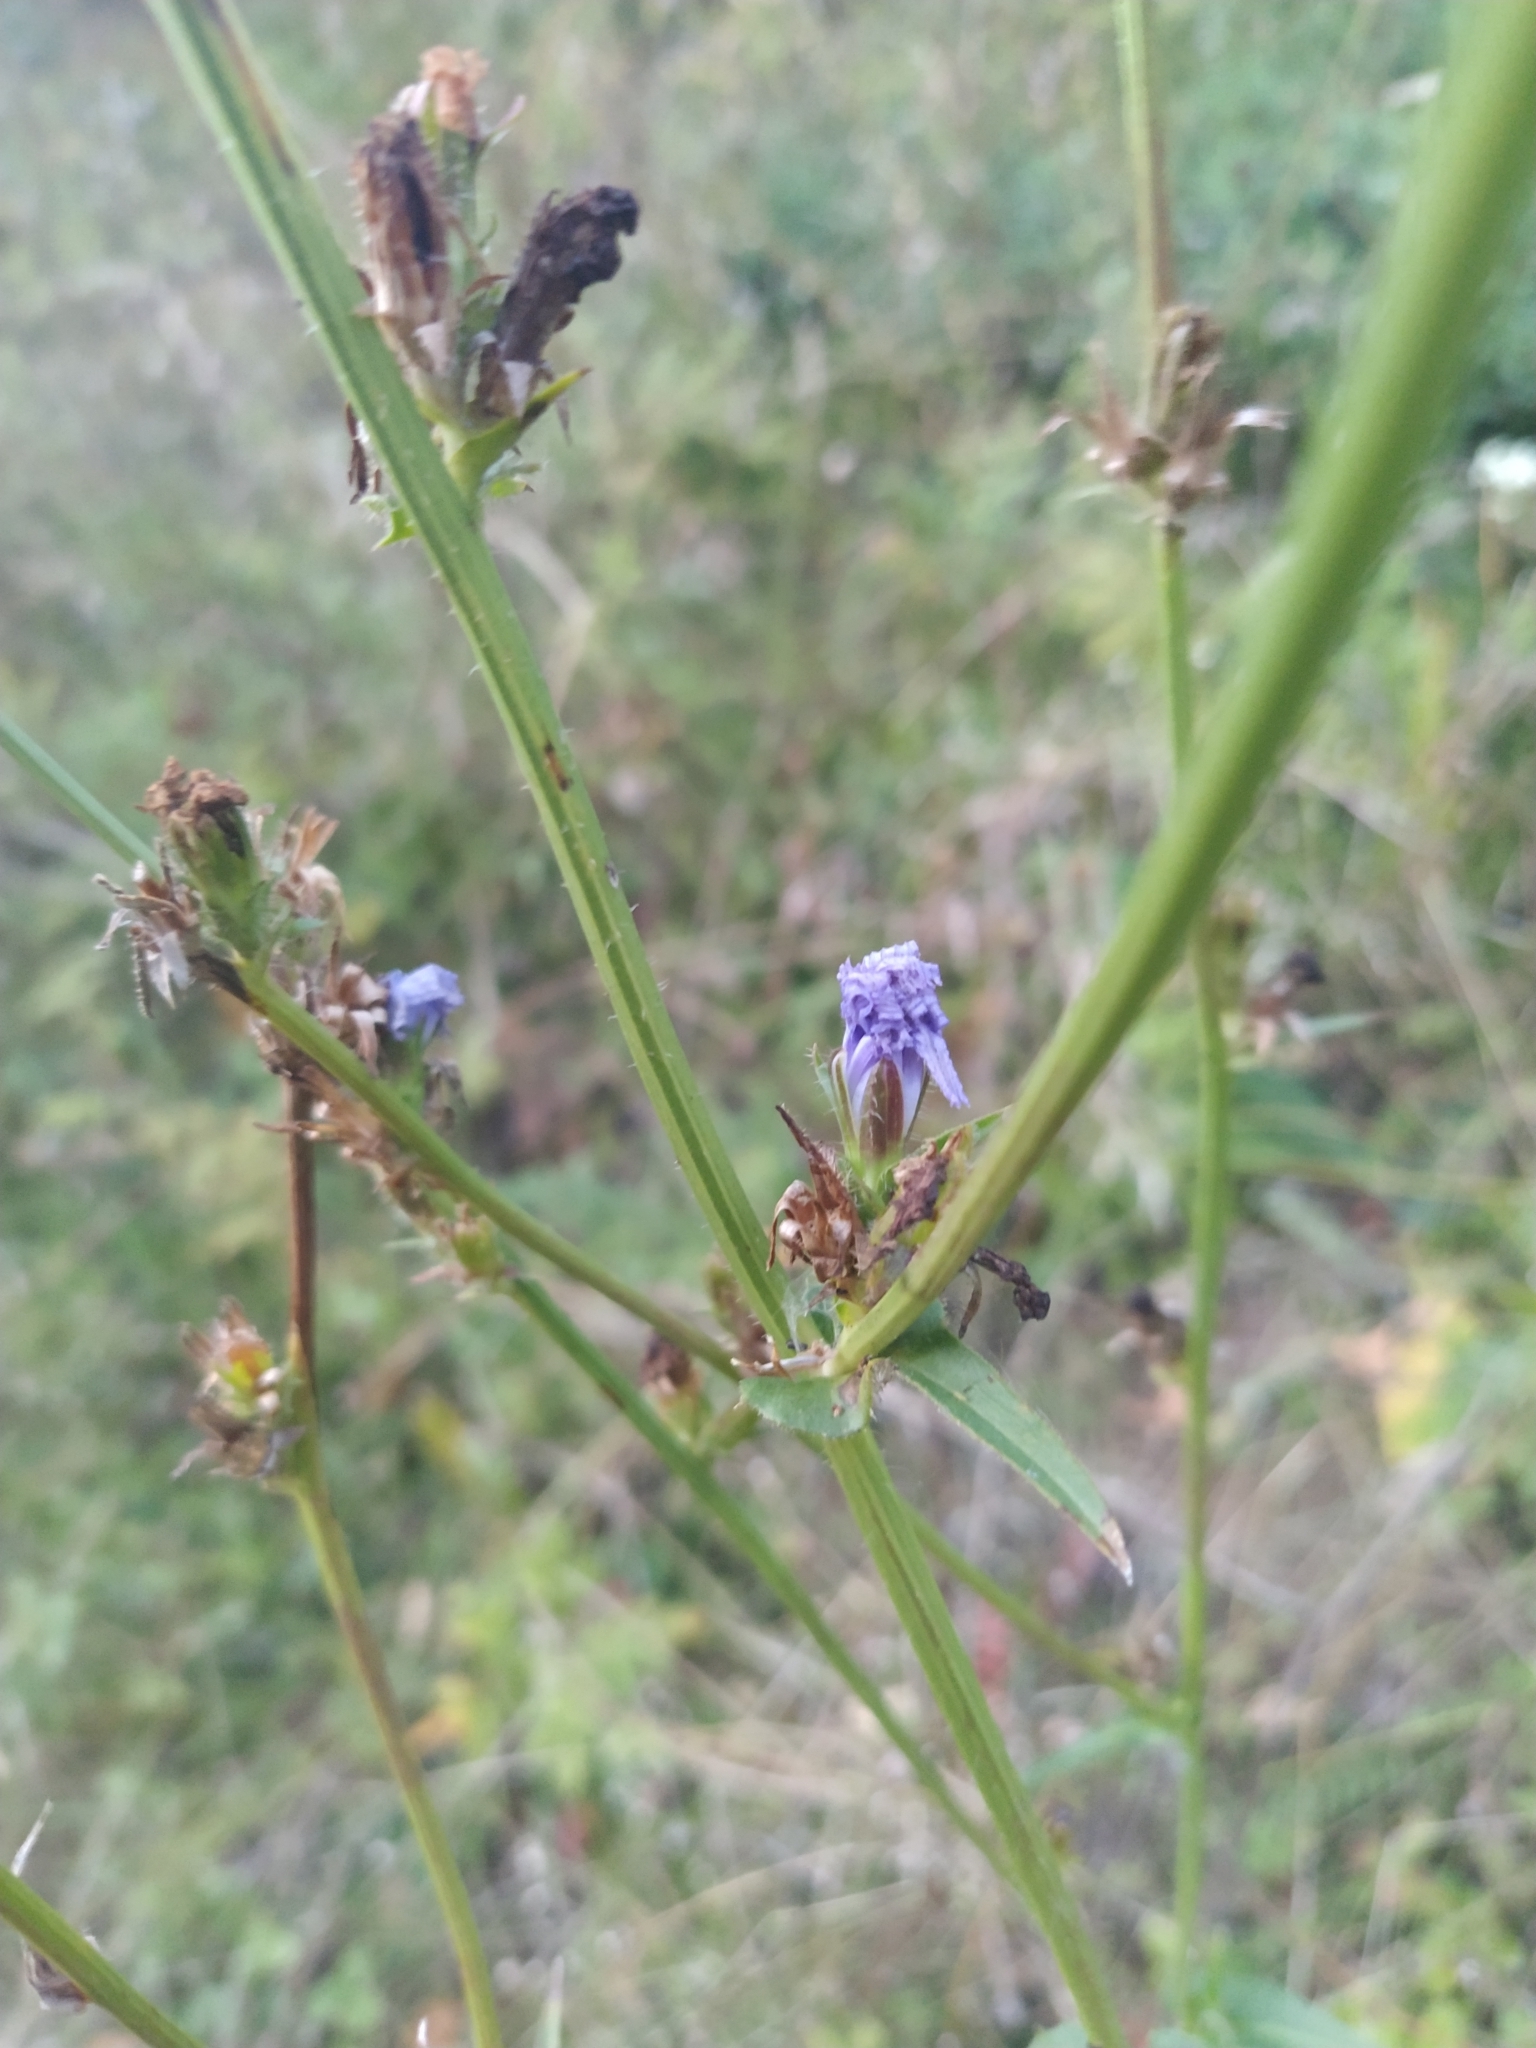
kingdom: Plantae
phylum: Tracheophyta
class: Magnoliopsida
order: Asterales
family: Asteraceae
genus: Cichorium
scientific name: Cichorium intybus
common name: Chicory
